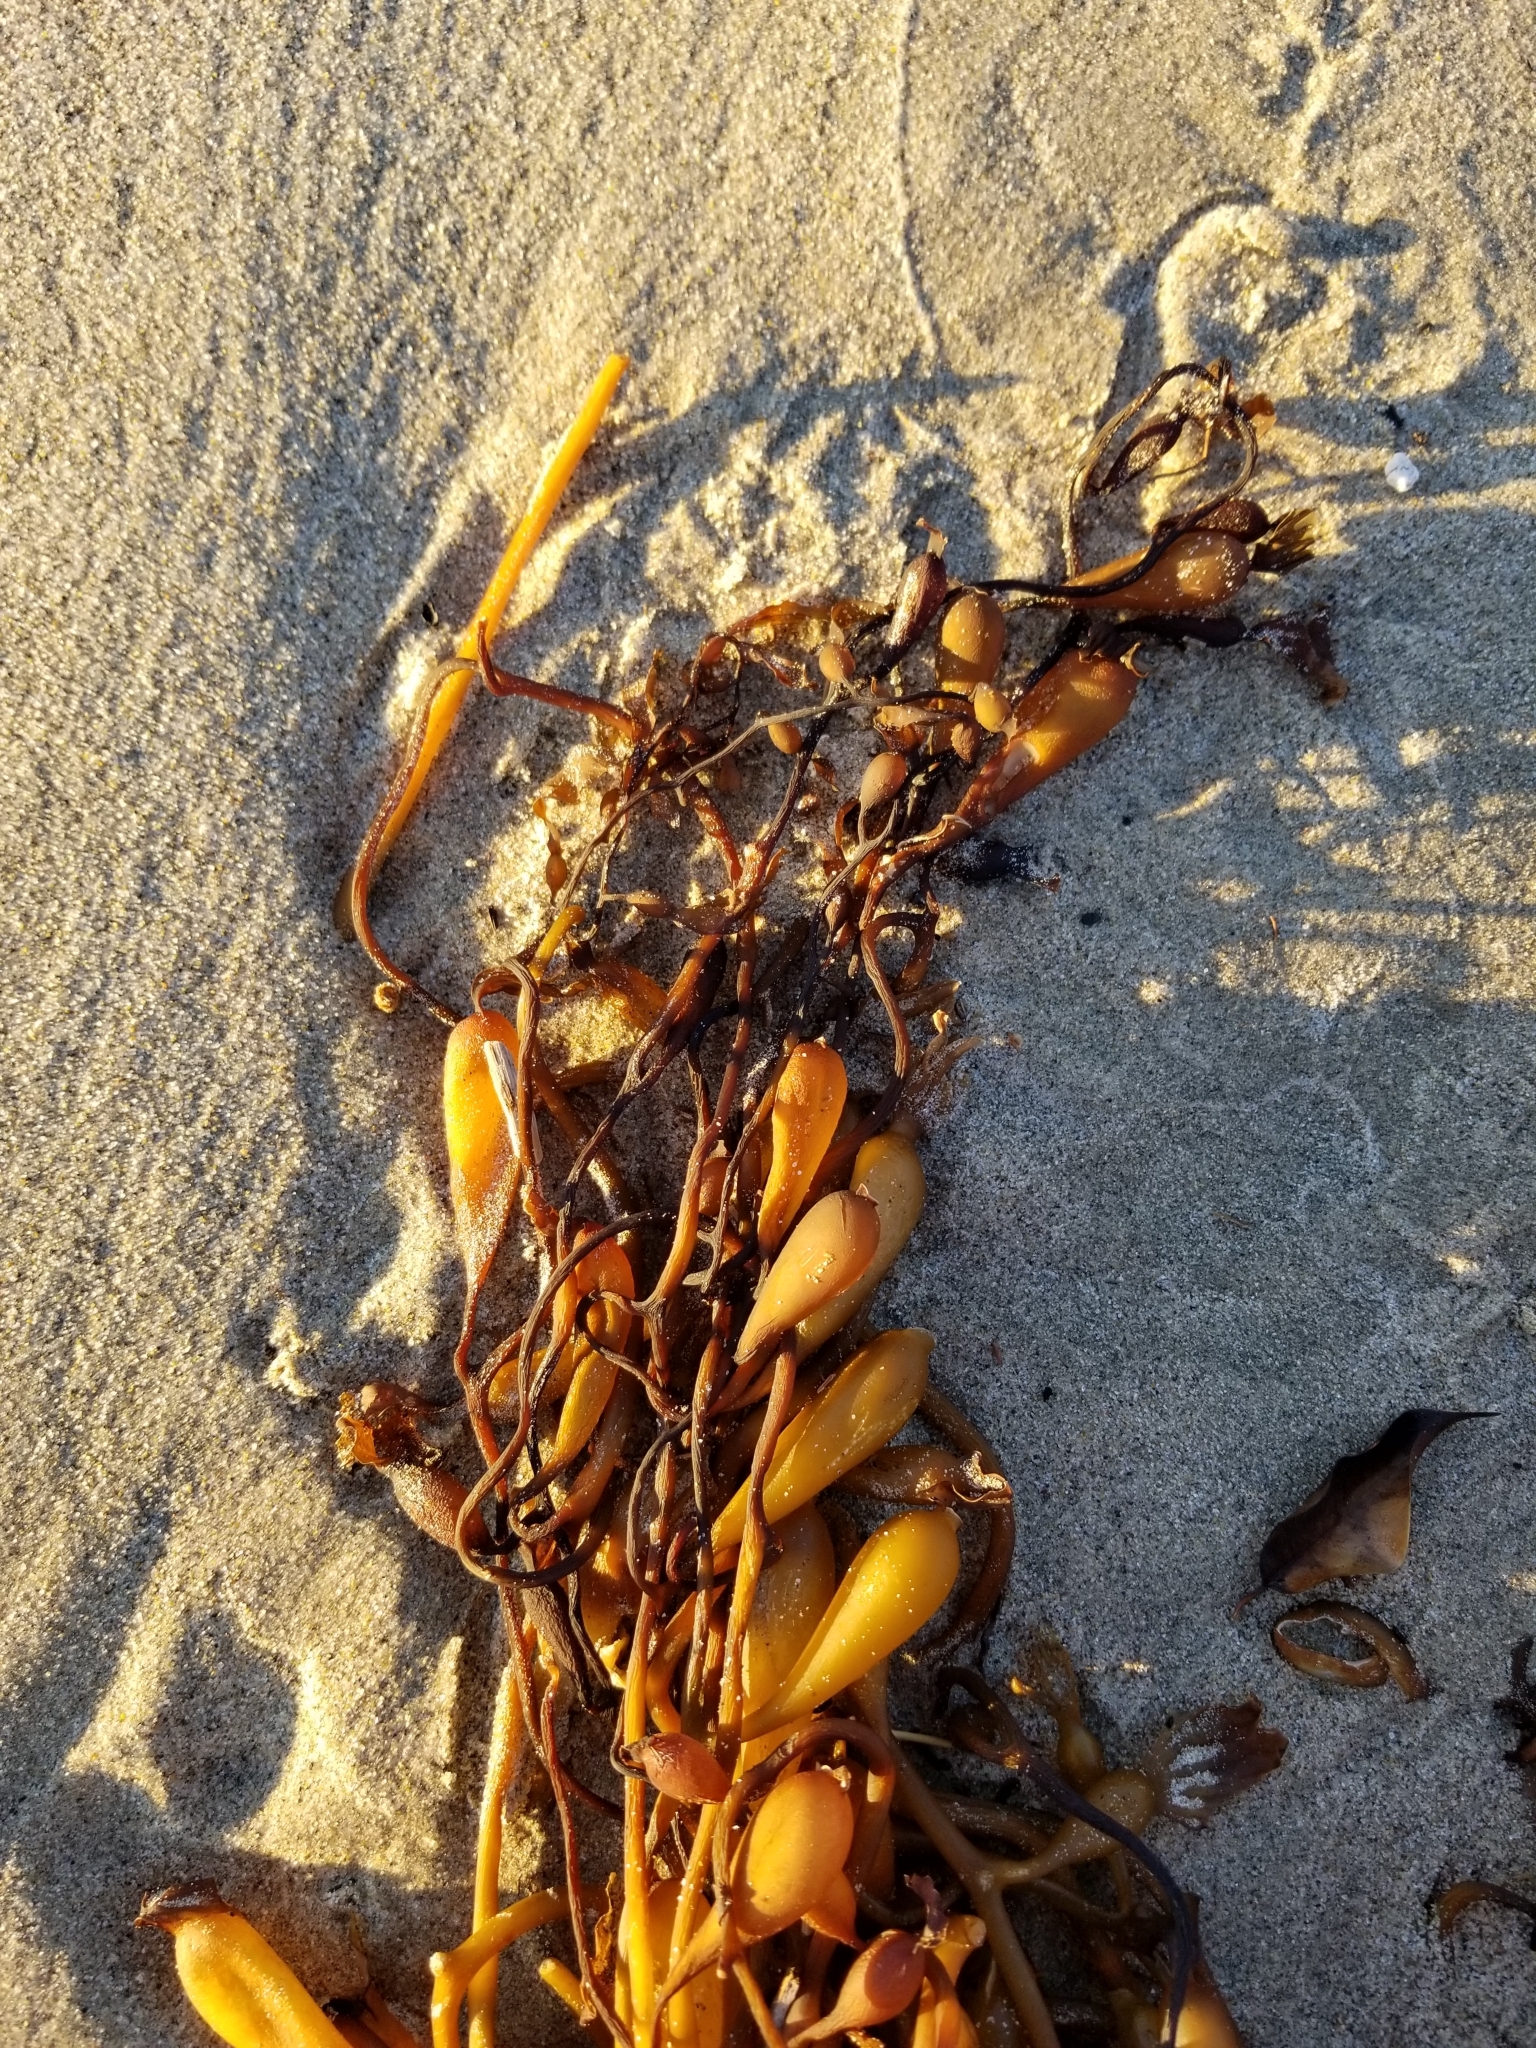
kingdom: Chromista
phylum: Ochrophyta
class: Phaeophyceae
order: Laminariales
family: Laminariaceae
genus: Macrocystis
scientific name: Macrocystis pyrifera
